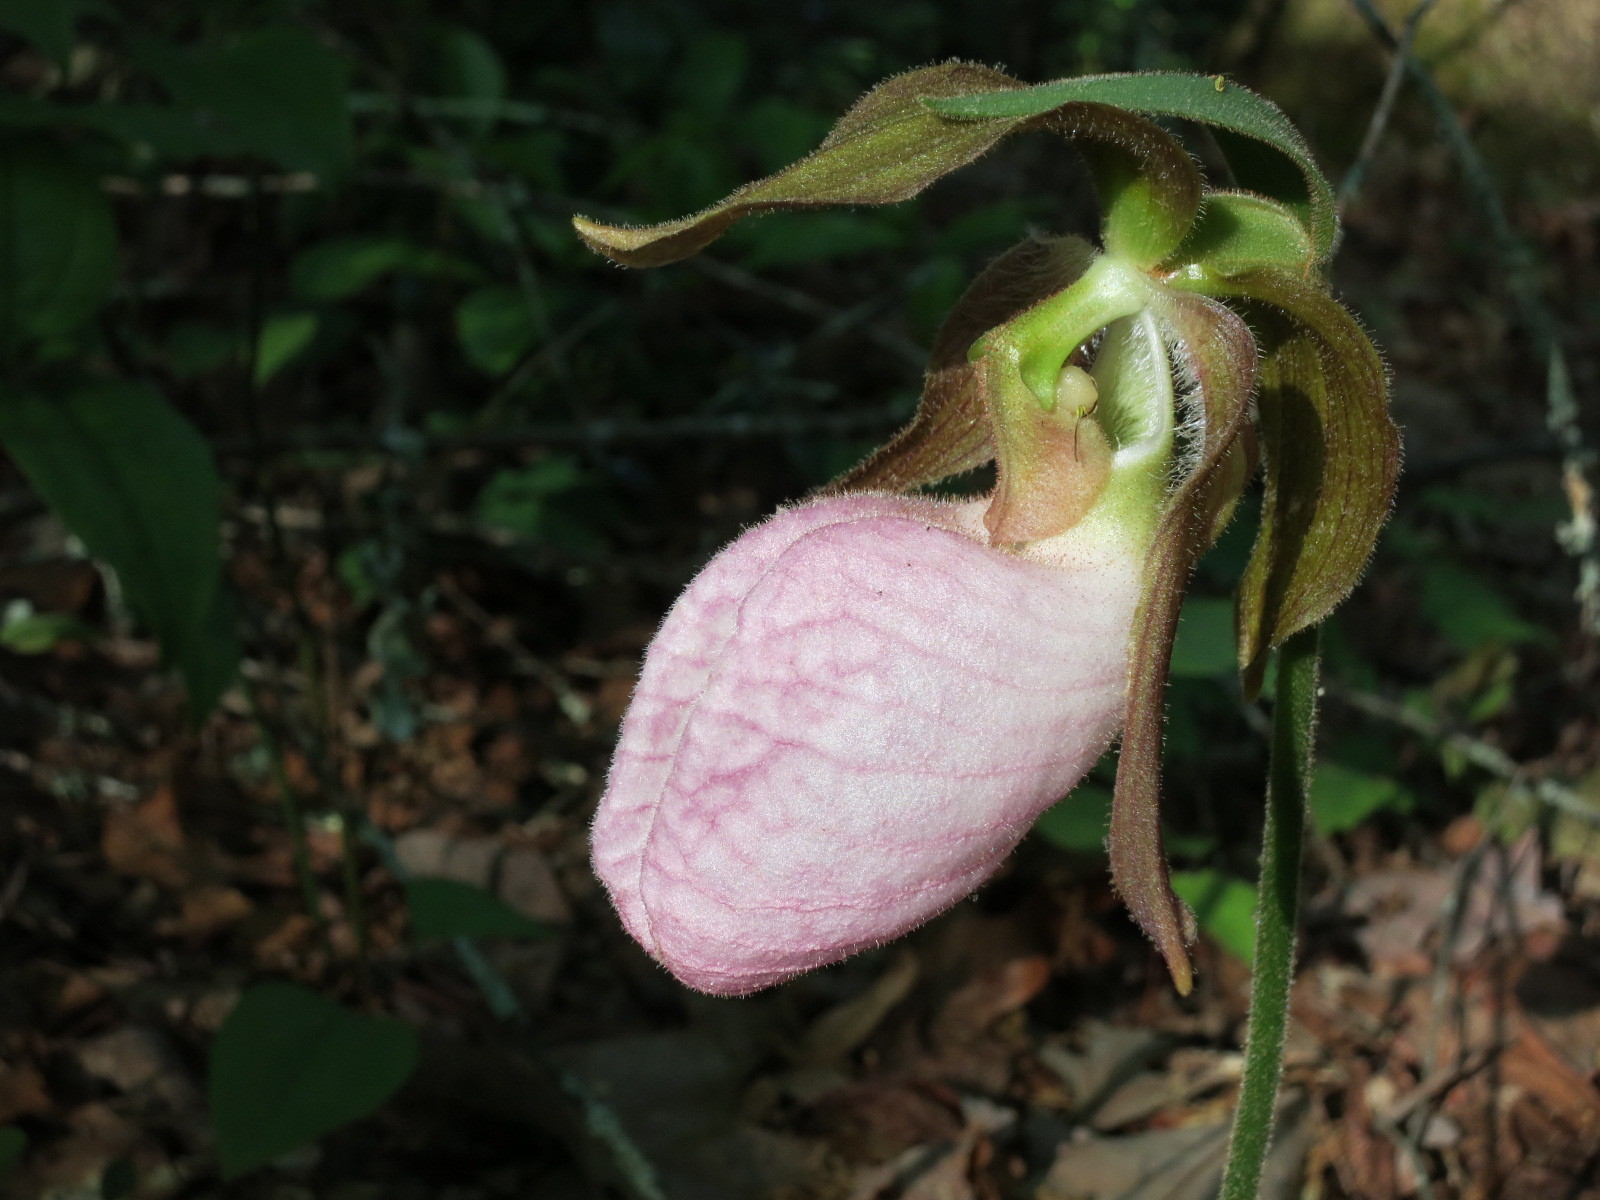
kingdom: Plantae
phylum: Tracheophyta
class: Liliopsida
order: Asparagales
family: Orchidaceae
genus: Cypripedium
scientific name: Cypripedium acaule
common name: Pink lady's-slipper
